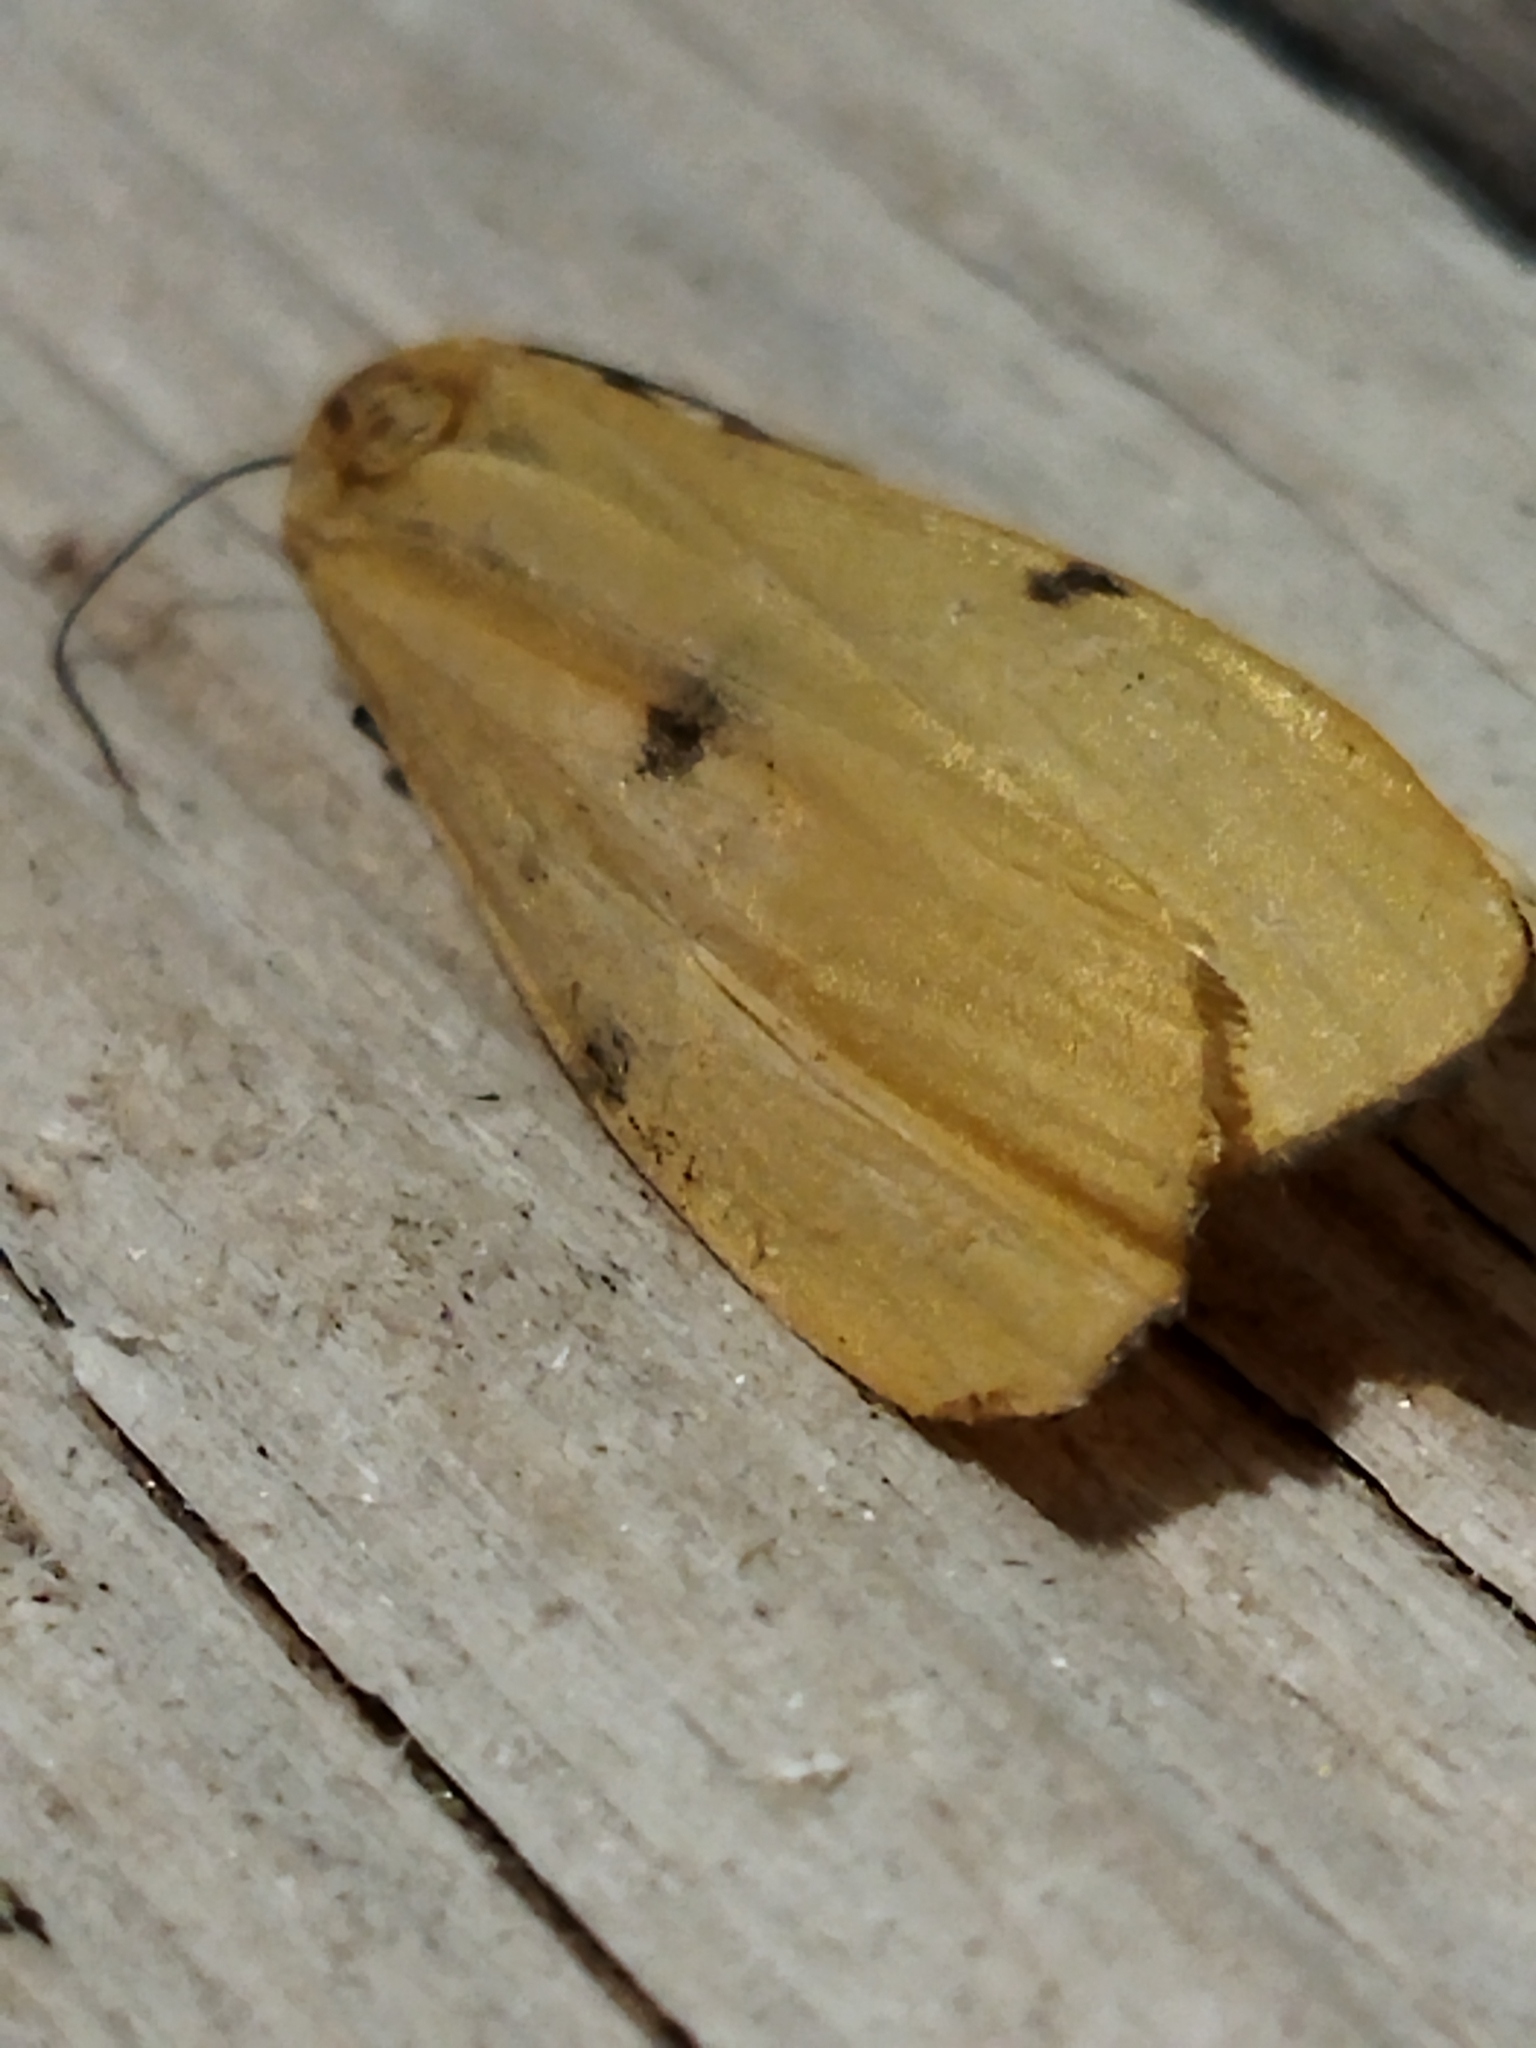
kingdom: Animalia
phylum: Arthropoda
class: Insecta
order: Lepidoptera
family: Erebidae
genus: Lithosia
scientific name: Lithosia quadra
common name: Four-spotted footman
